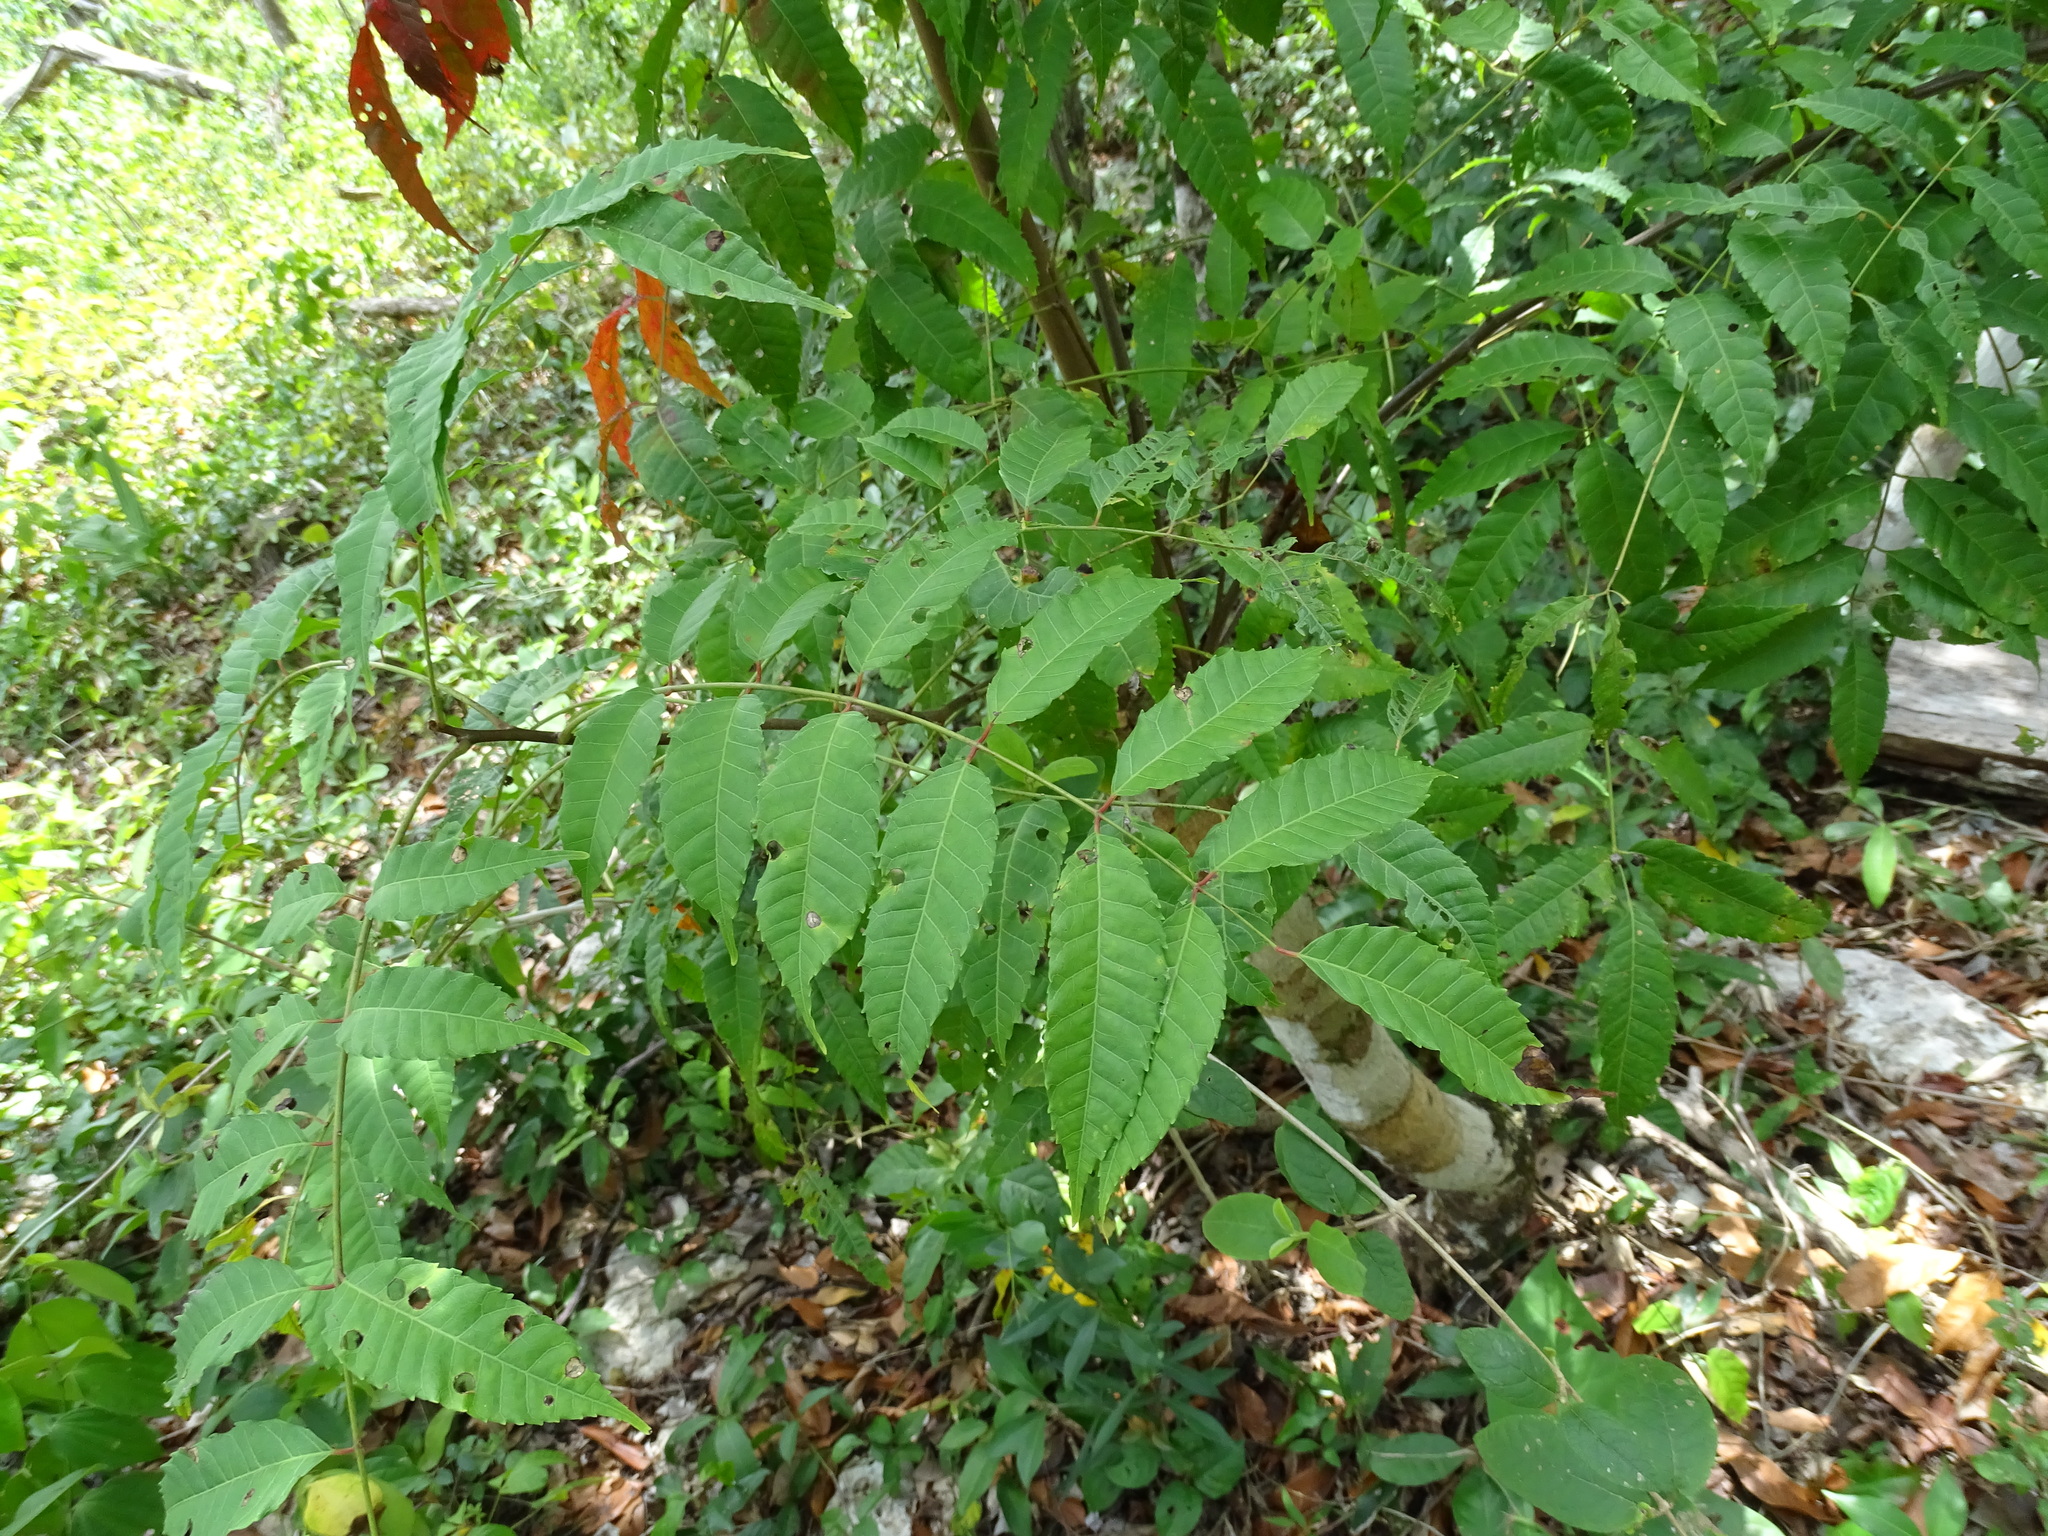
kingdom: Plantae
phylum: Tracheophyta
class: Magnoliopsida
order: Sapindales
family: Anacardiaceae
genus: Astronium
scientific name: Astronium graveolens
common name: Glassywood
